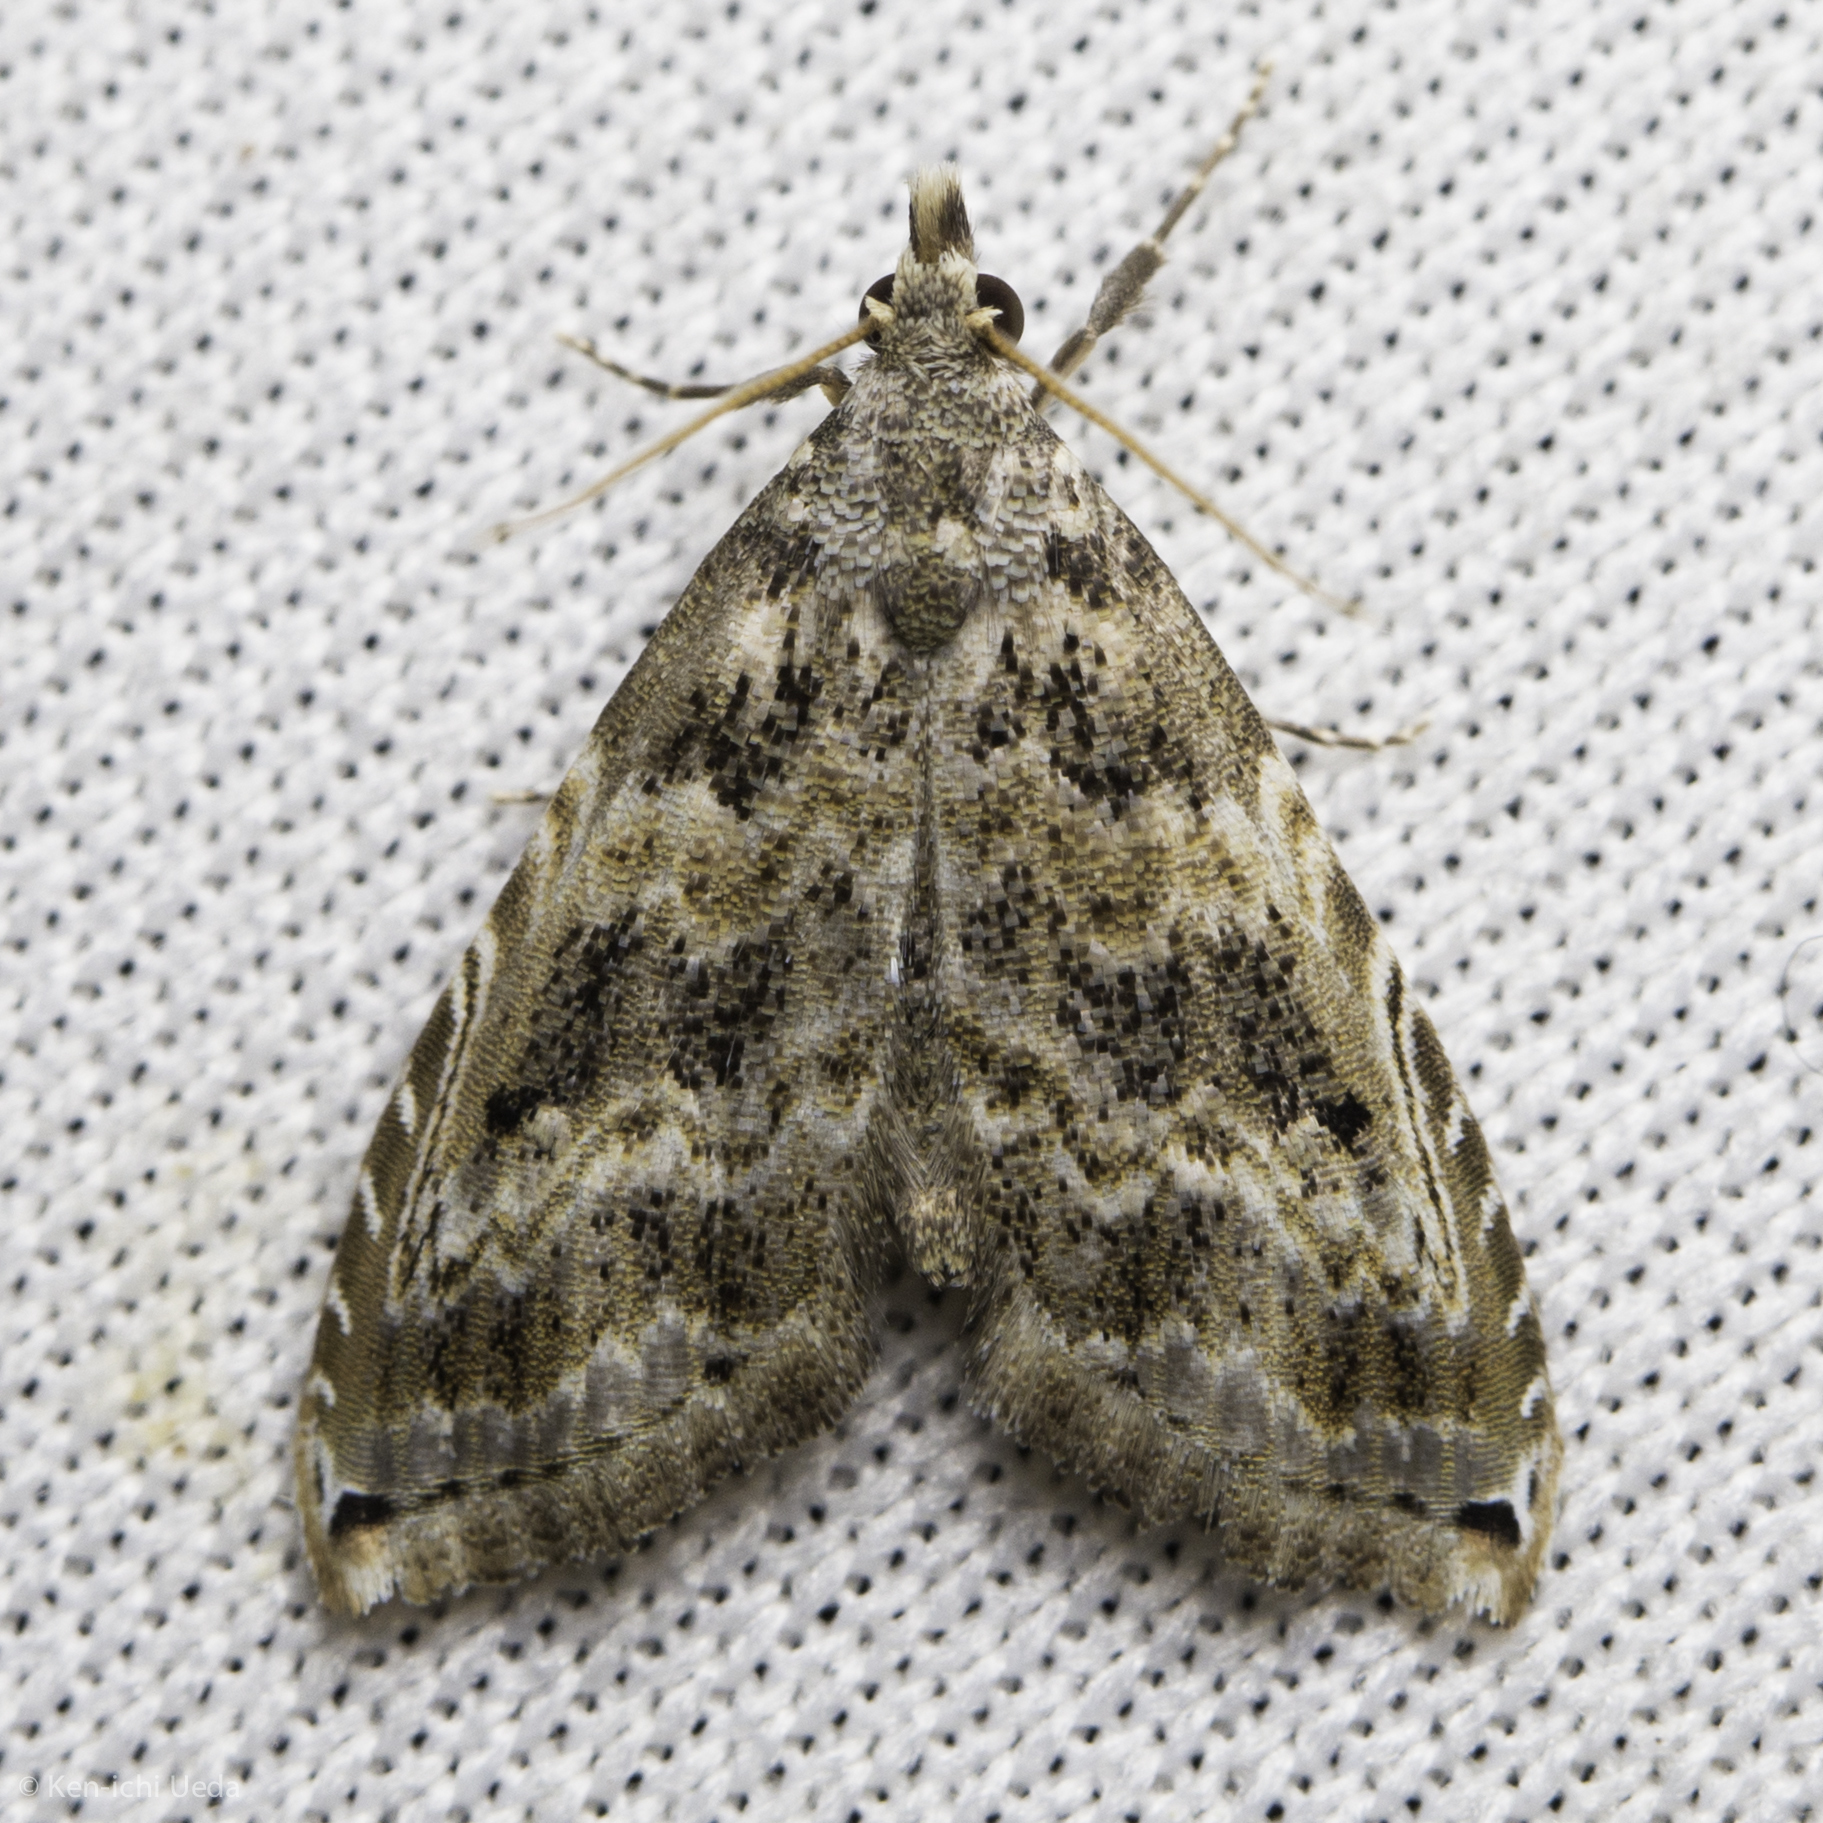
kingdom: Animalia
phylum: Arthropoda
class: Insecta
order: Lepidoptera
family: Noctuidae
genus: Phobolosia
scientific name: Phobolosia anfracta
